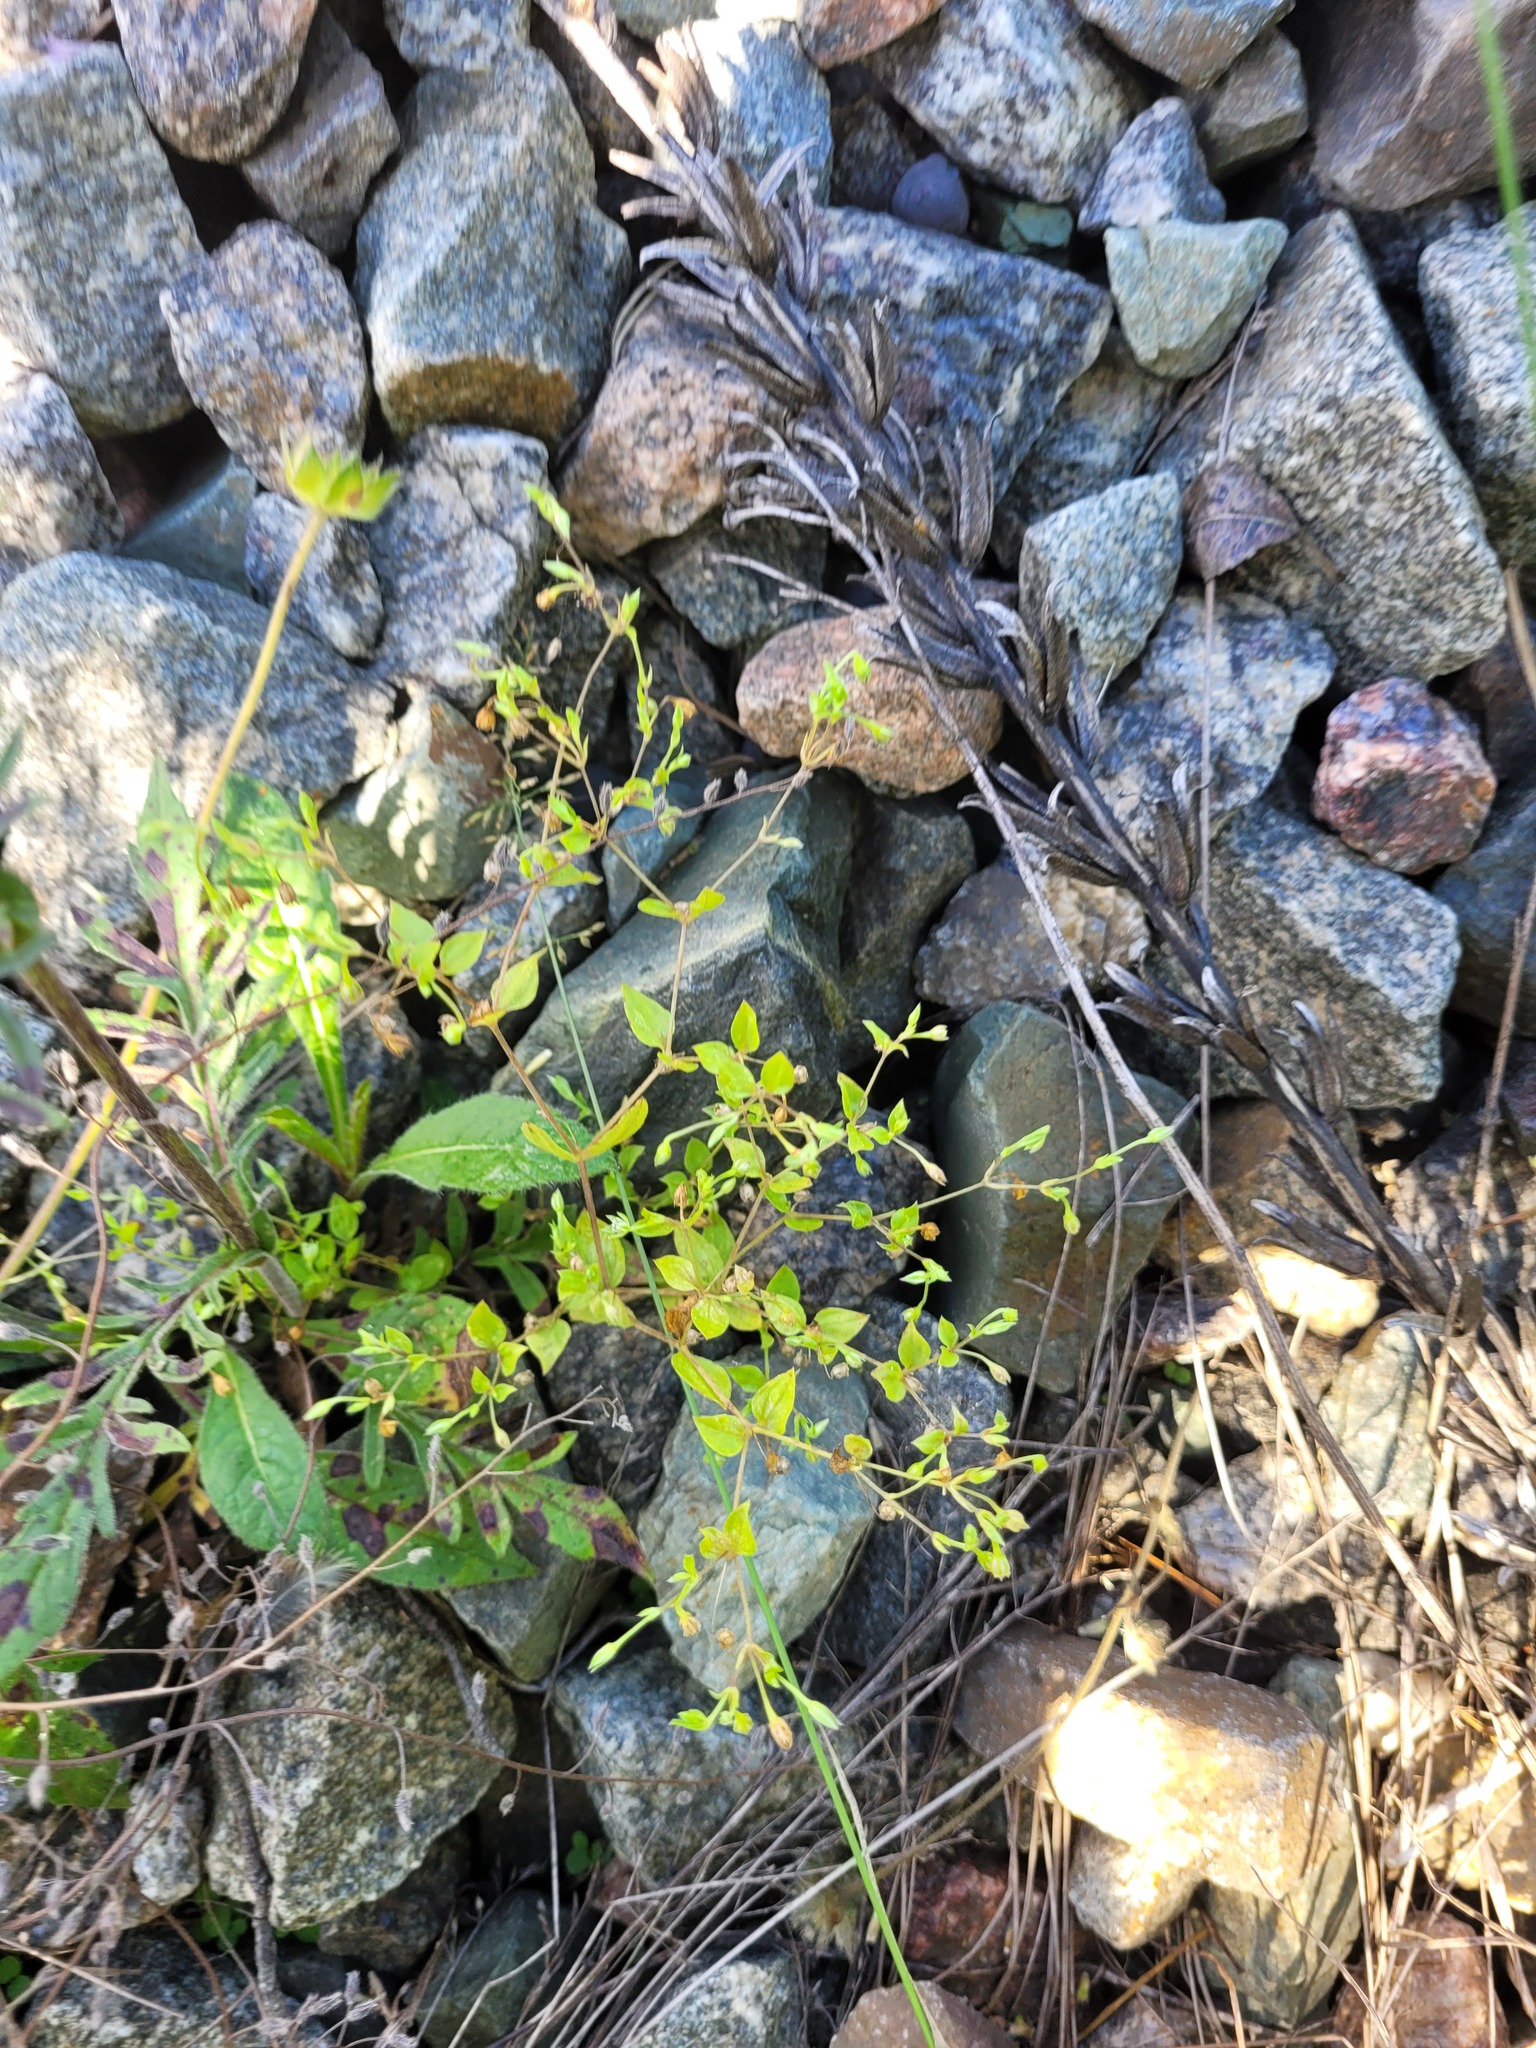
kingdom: Plantae
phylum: Tracheophyta
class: Magnoliopsida
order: Caryophyllales
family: Caryophyllaceae
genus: Moehringia
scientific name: Moehringia trinervia
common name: Three-nerved sandwort
